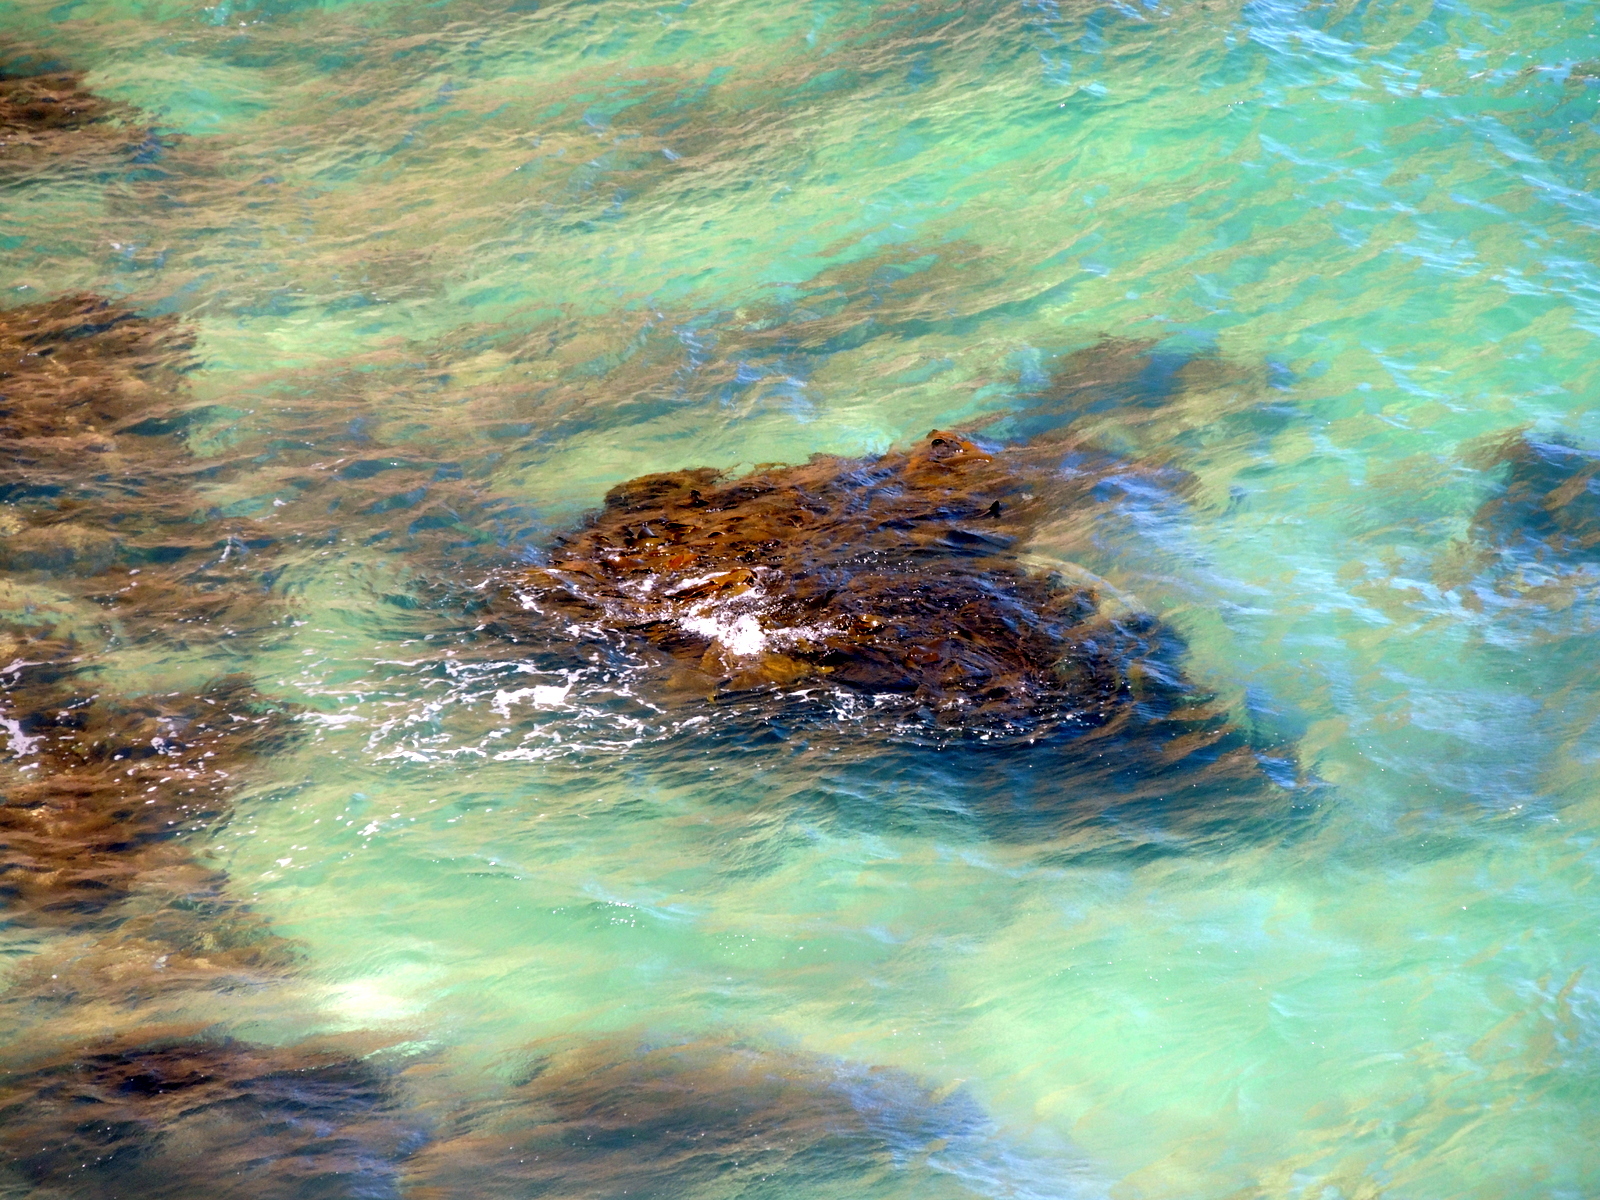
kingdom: Chromista
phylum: Ochrophyta
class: Phaeophyceae
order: Fucales
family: Durvillaeaceae
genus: Durvillaea
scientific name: Durvillaea
